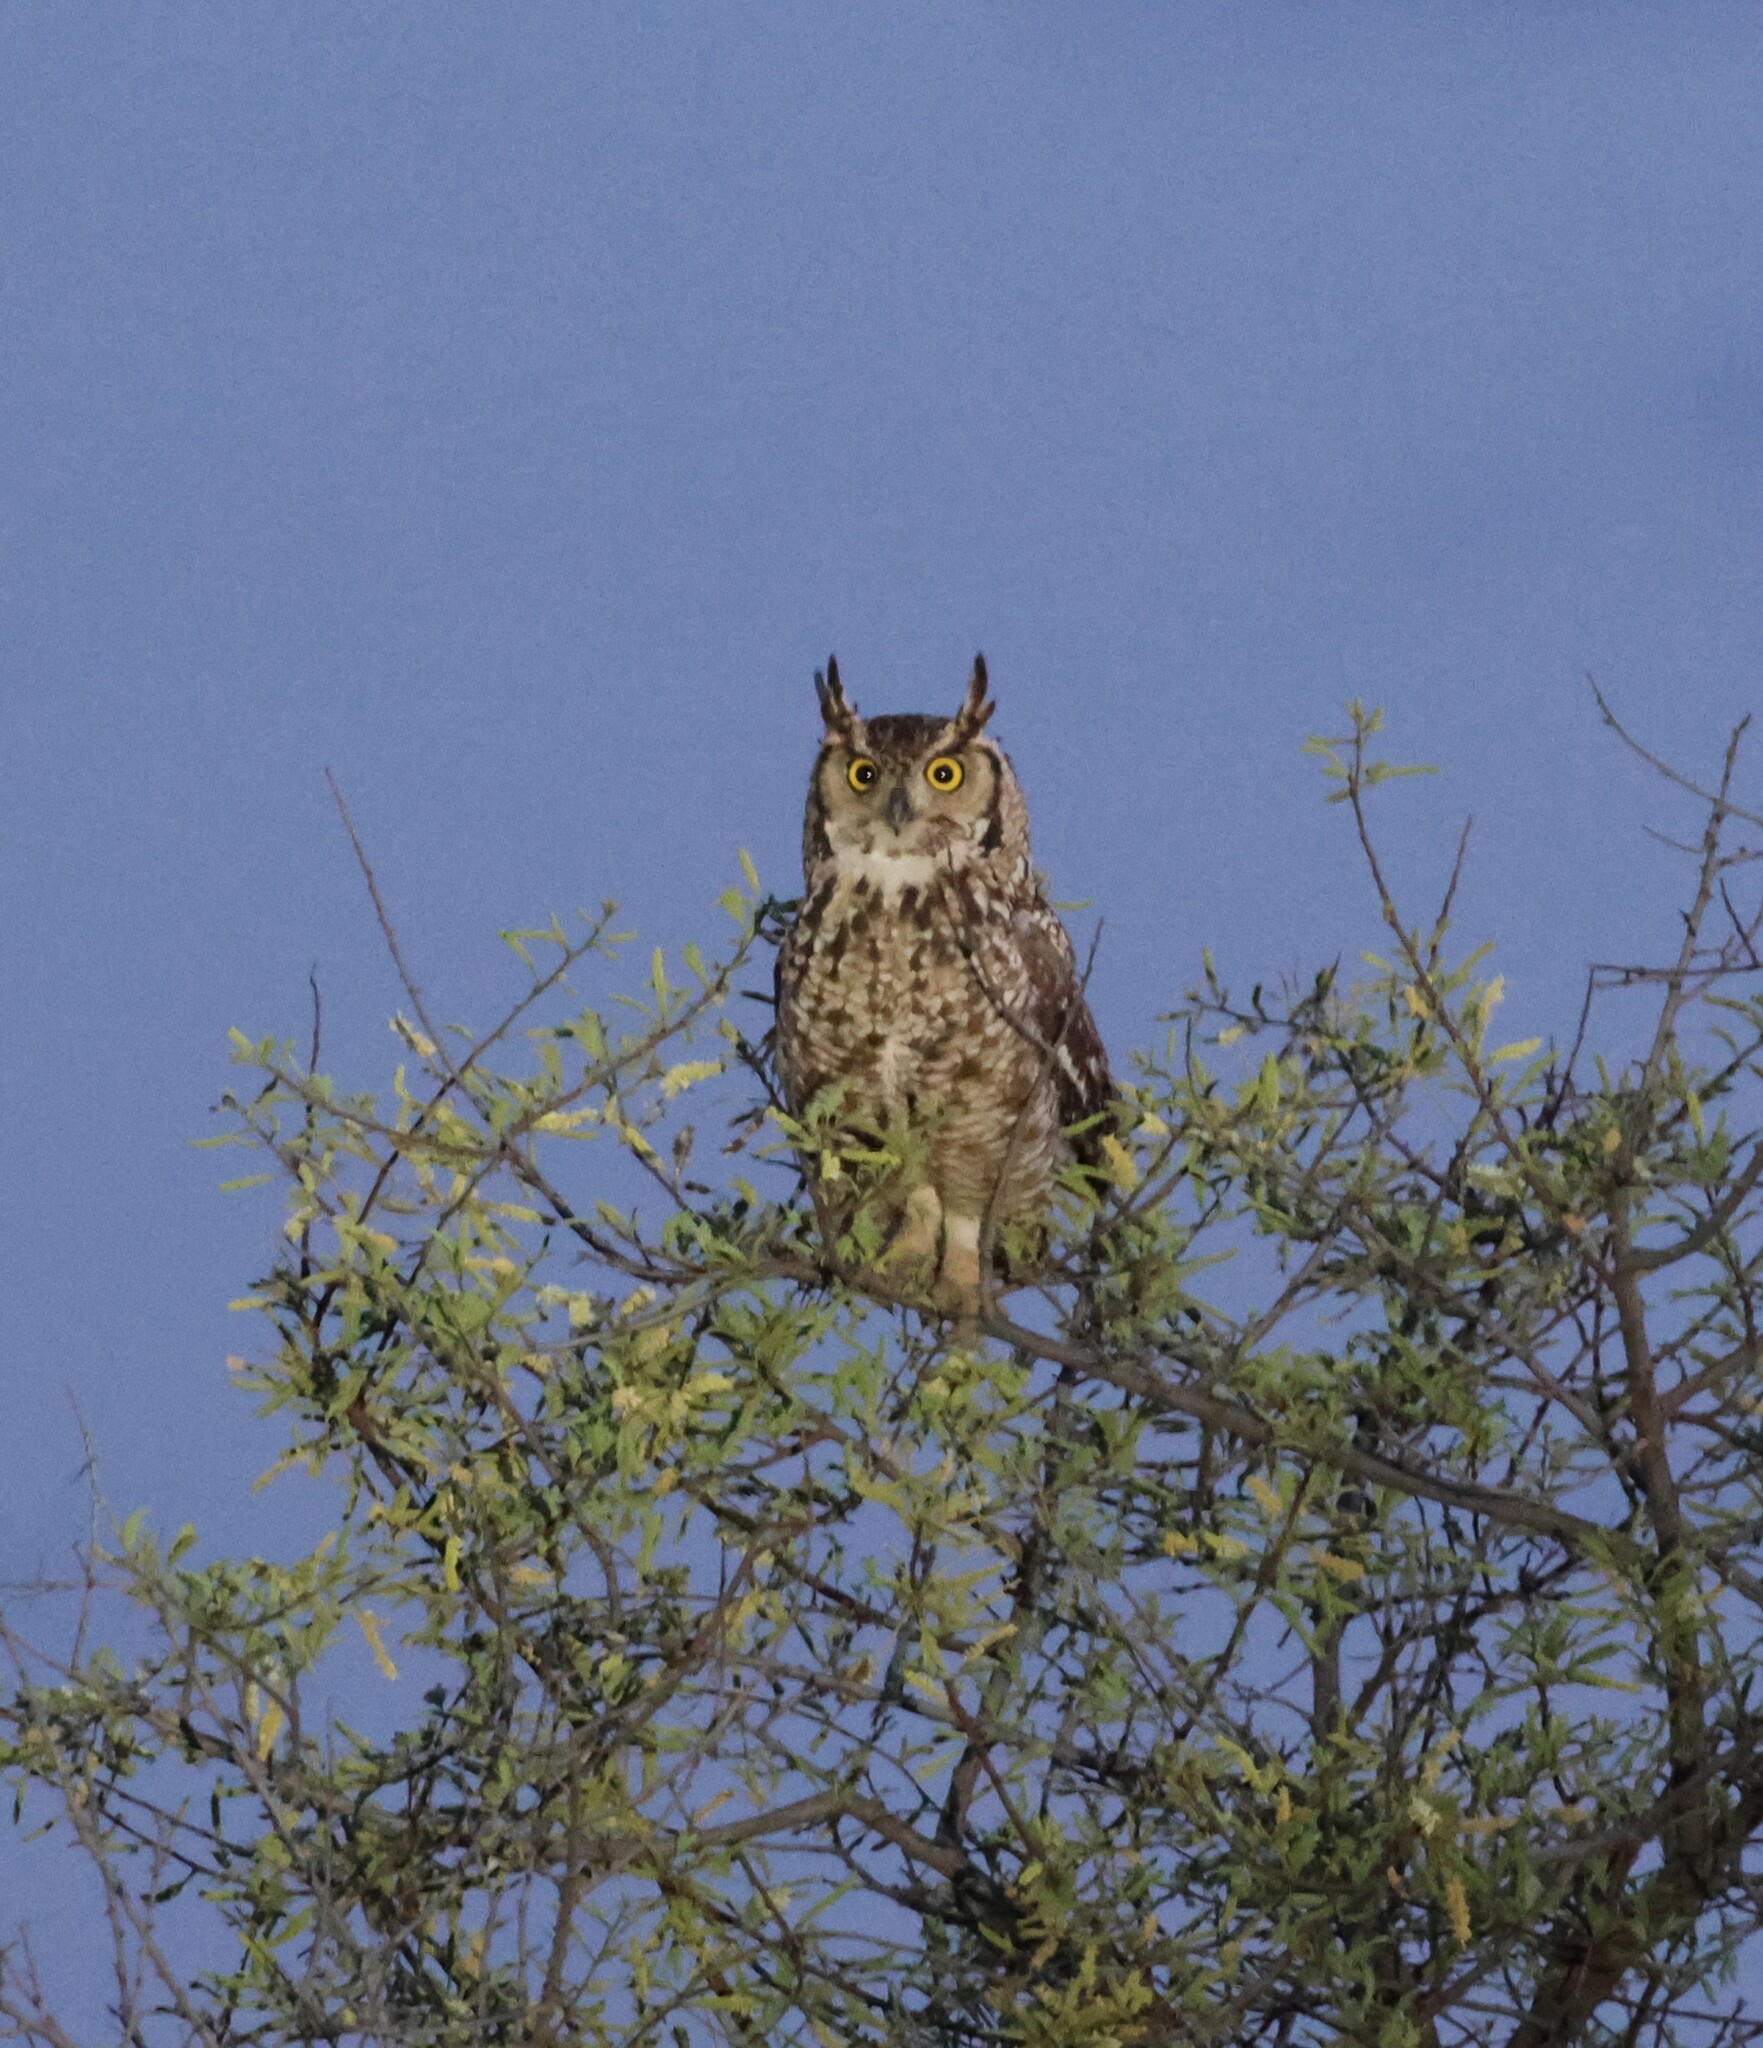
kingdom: Animalia
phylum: Chordata
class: Aves
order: Strigiformes
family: Strigidae
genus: Bubo
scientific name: Bubo africanus
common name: Spotted eagle-owl
